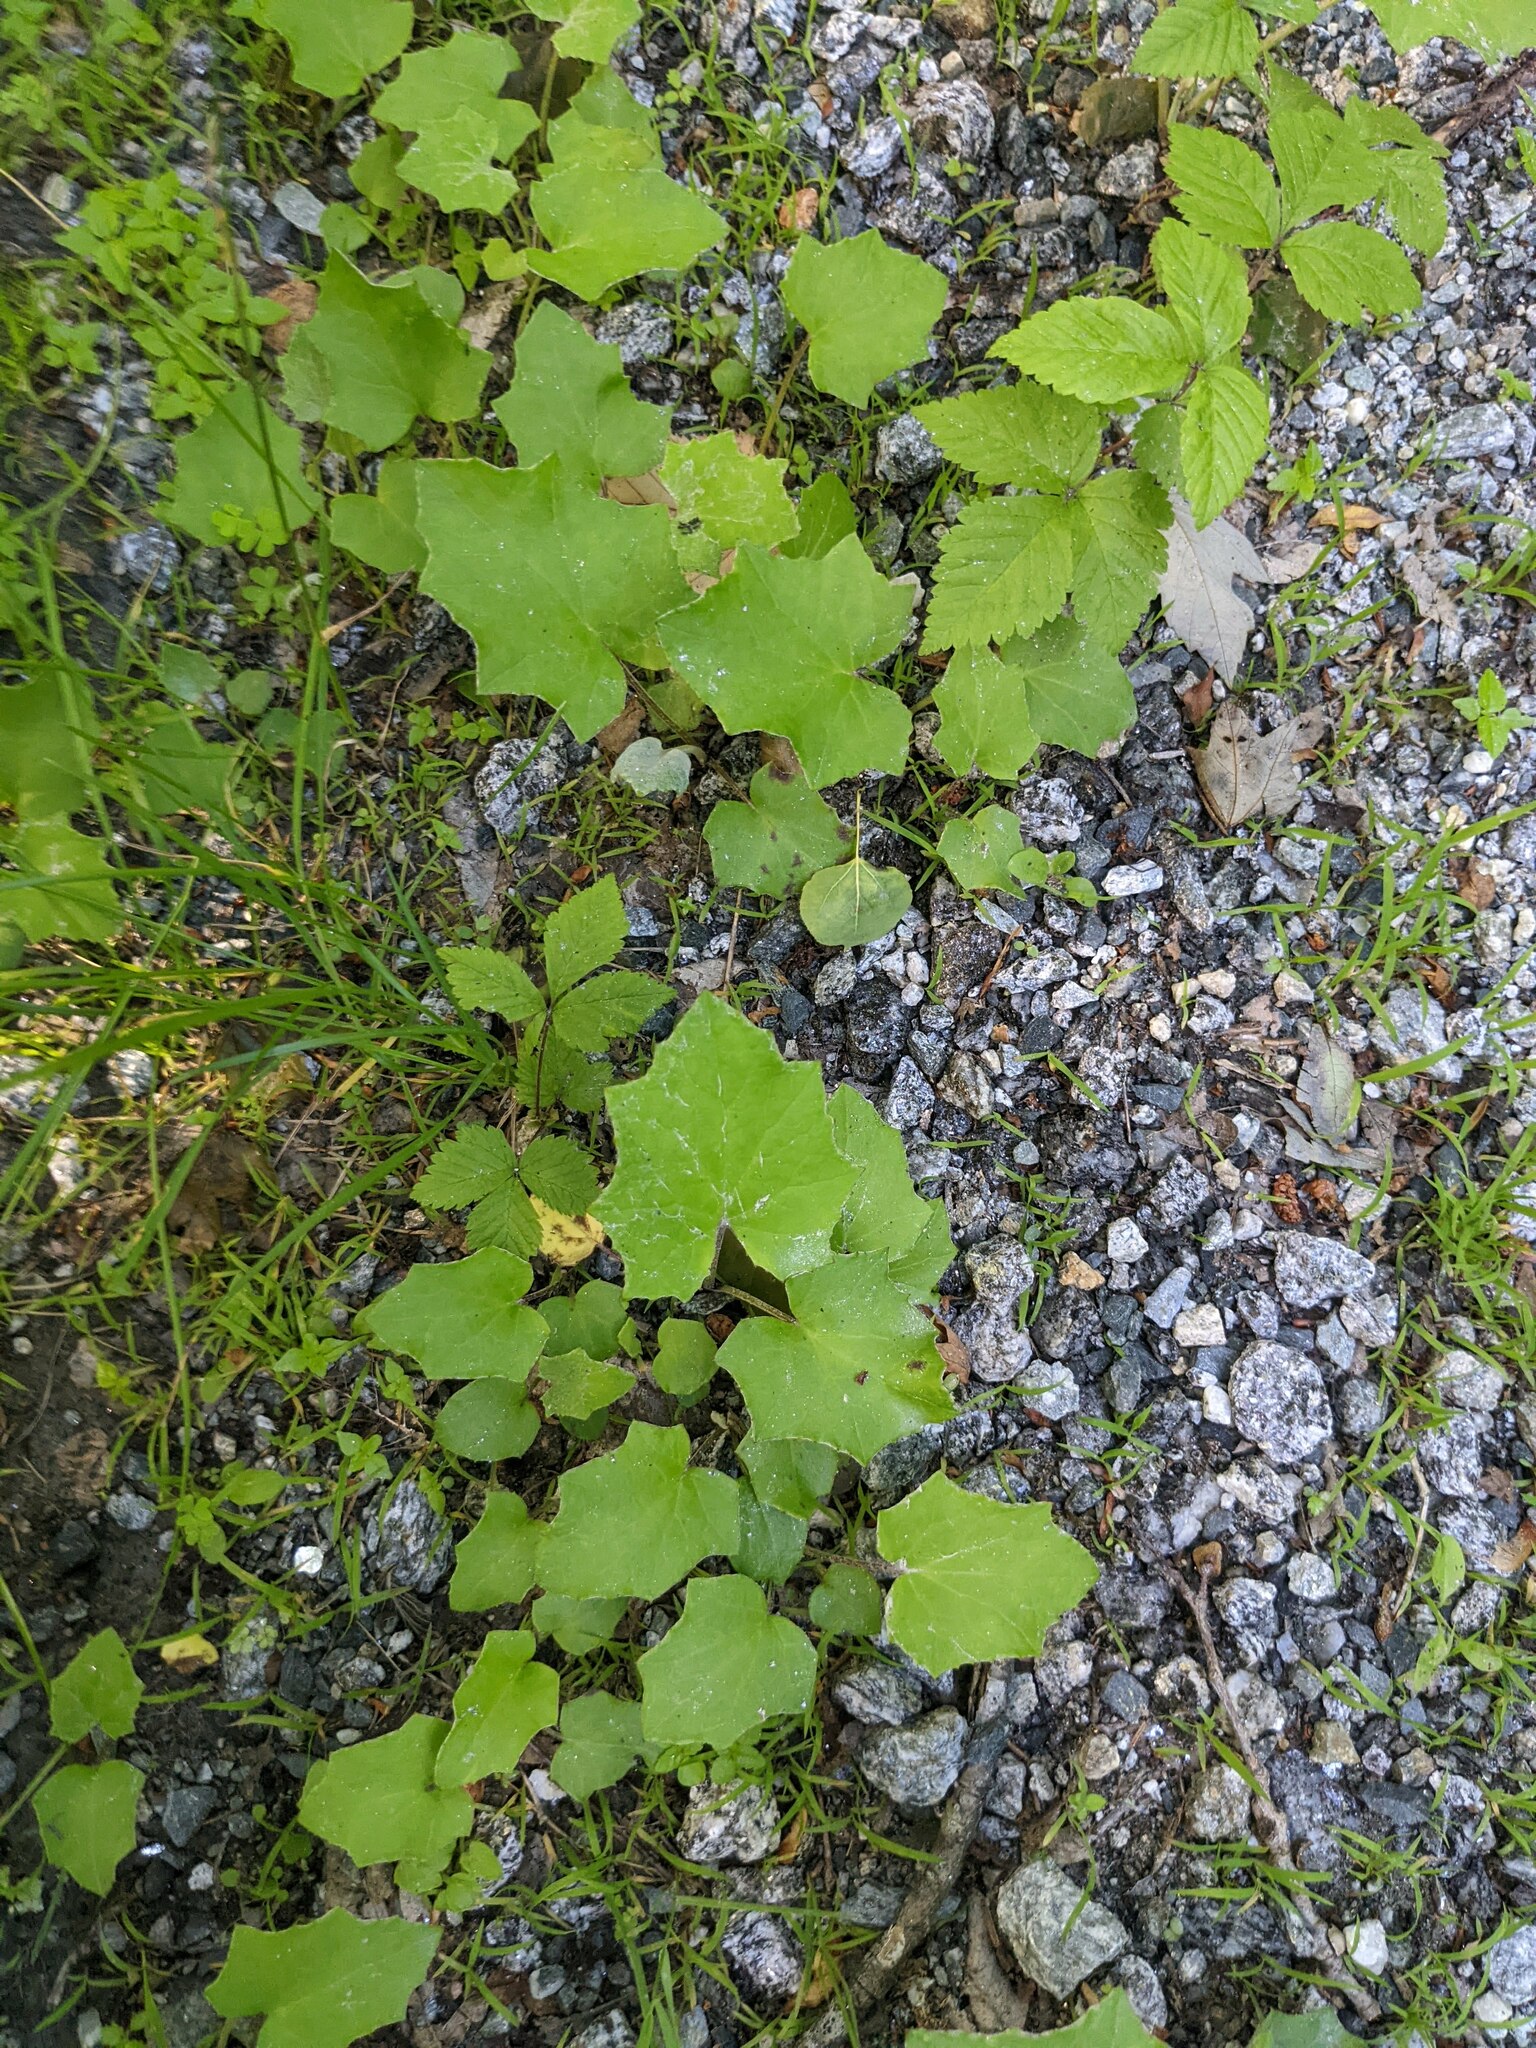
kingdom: Plantae
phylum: Tracheophyta
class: Magnoliopsida
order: Asterales
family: Asteraceae
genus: Tussilago
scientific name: Tussilago farfara
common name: Coltsfoot
